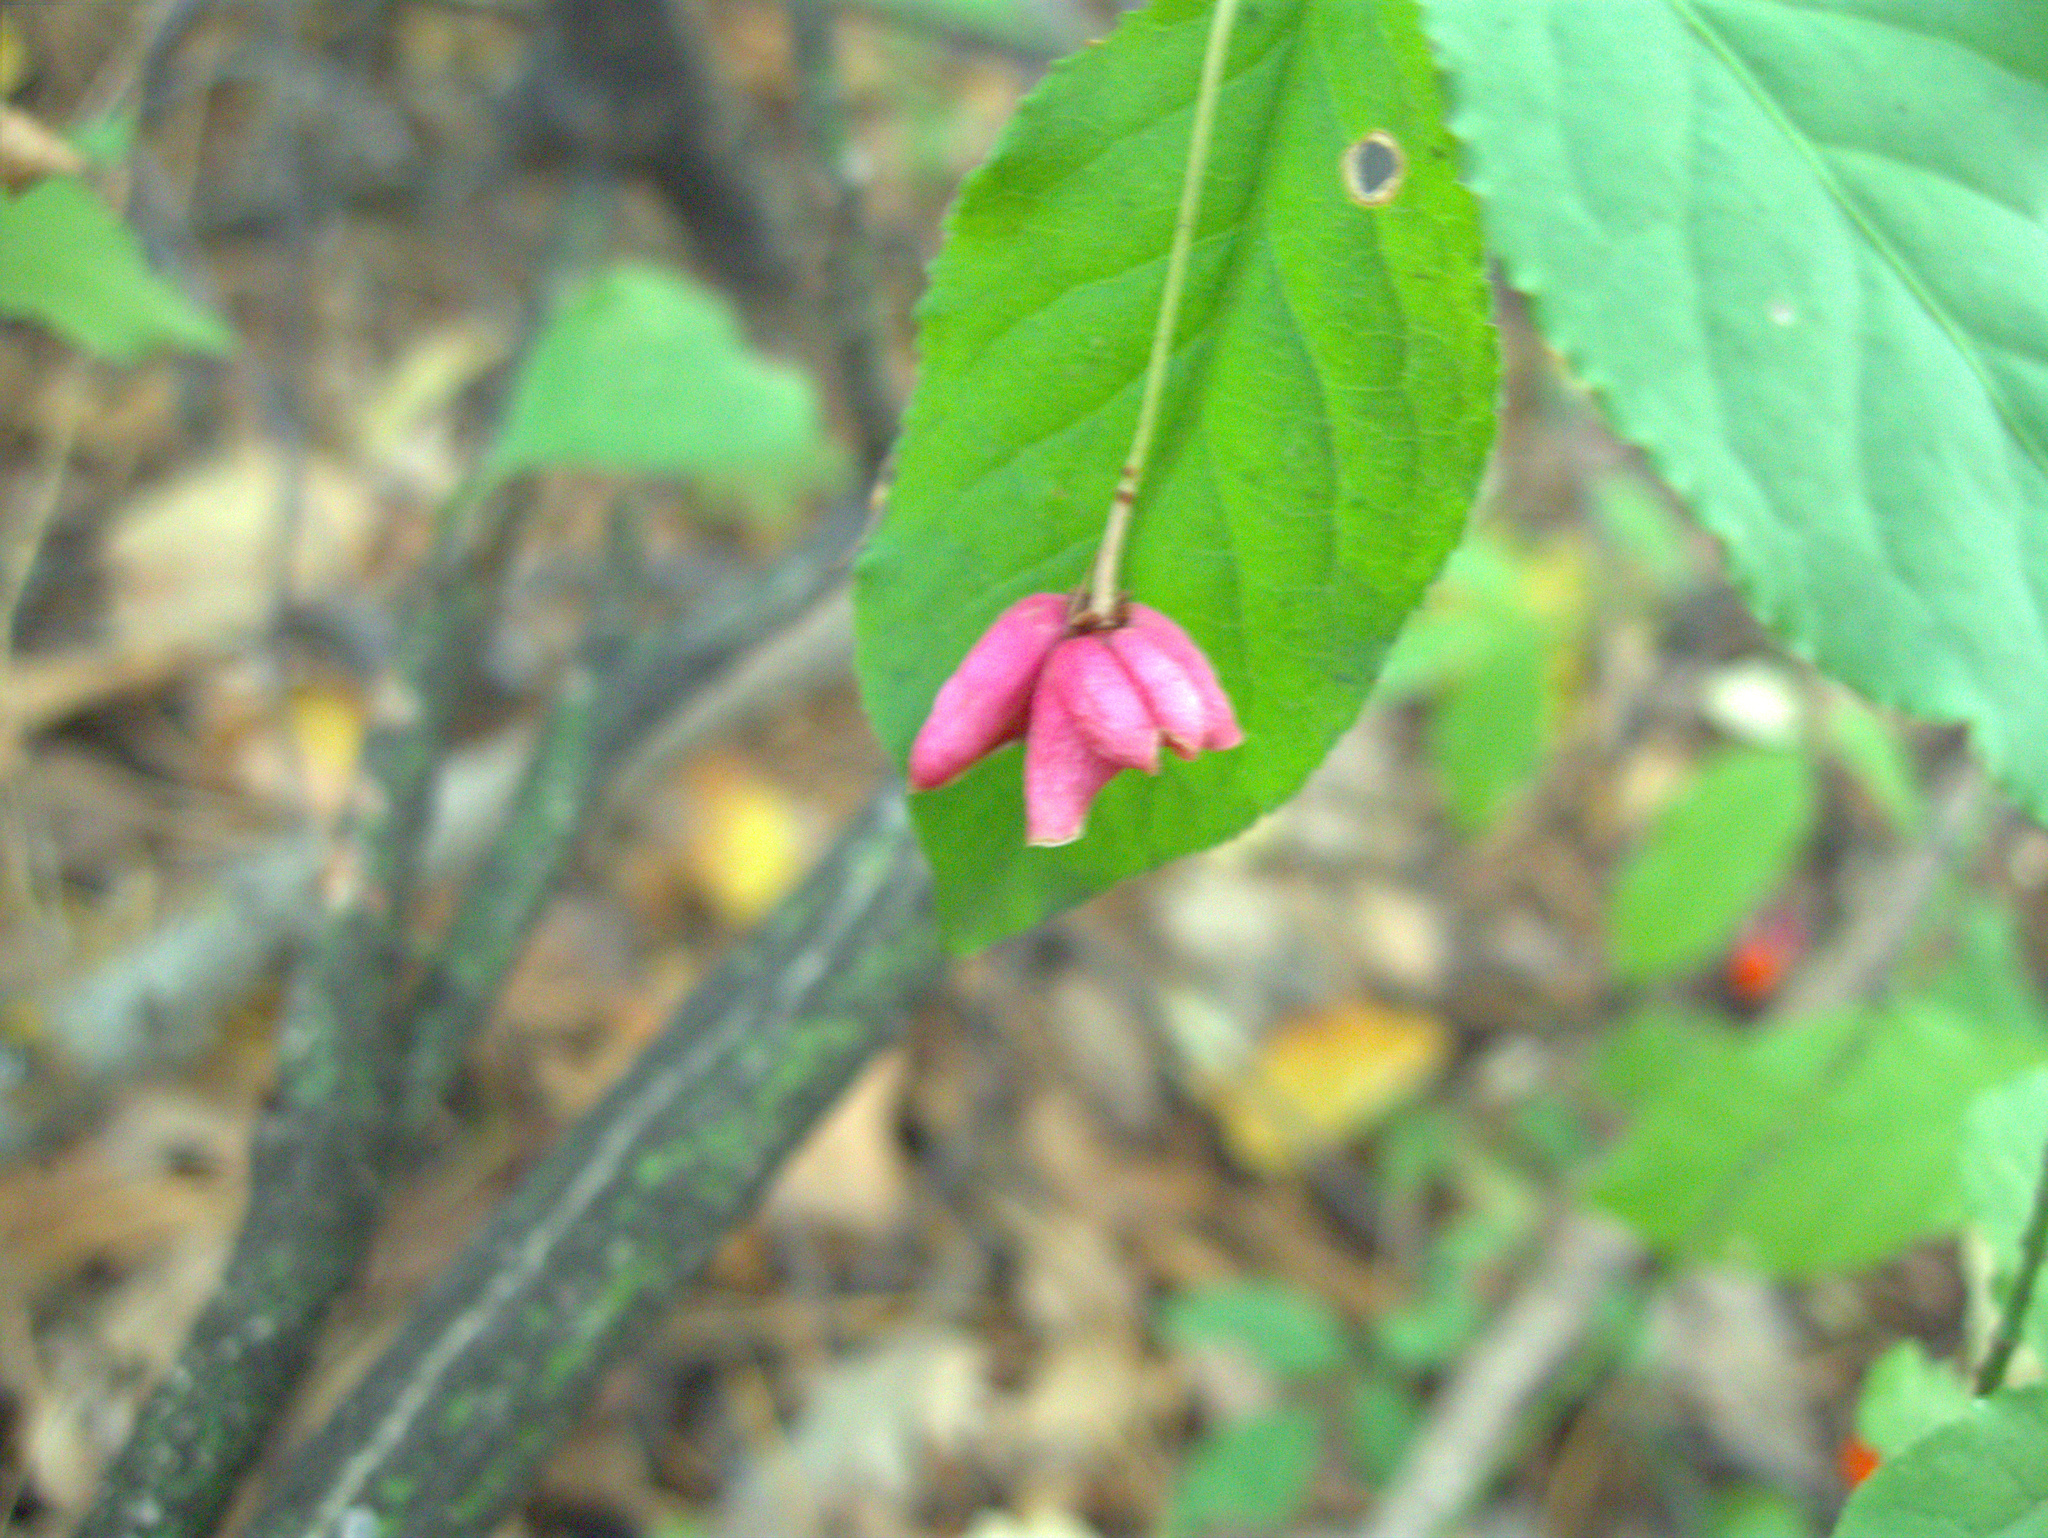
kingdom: Plantae
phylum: Tracheophyta
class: Magnoliopsida
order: Celastrales
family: Celastraceae
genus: Euonymus
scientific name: Euonymus verrucosus
